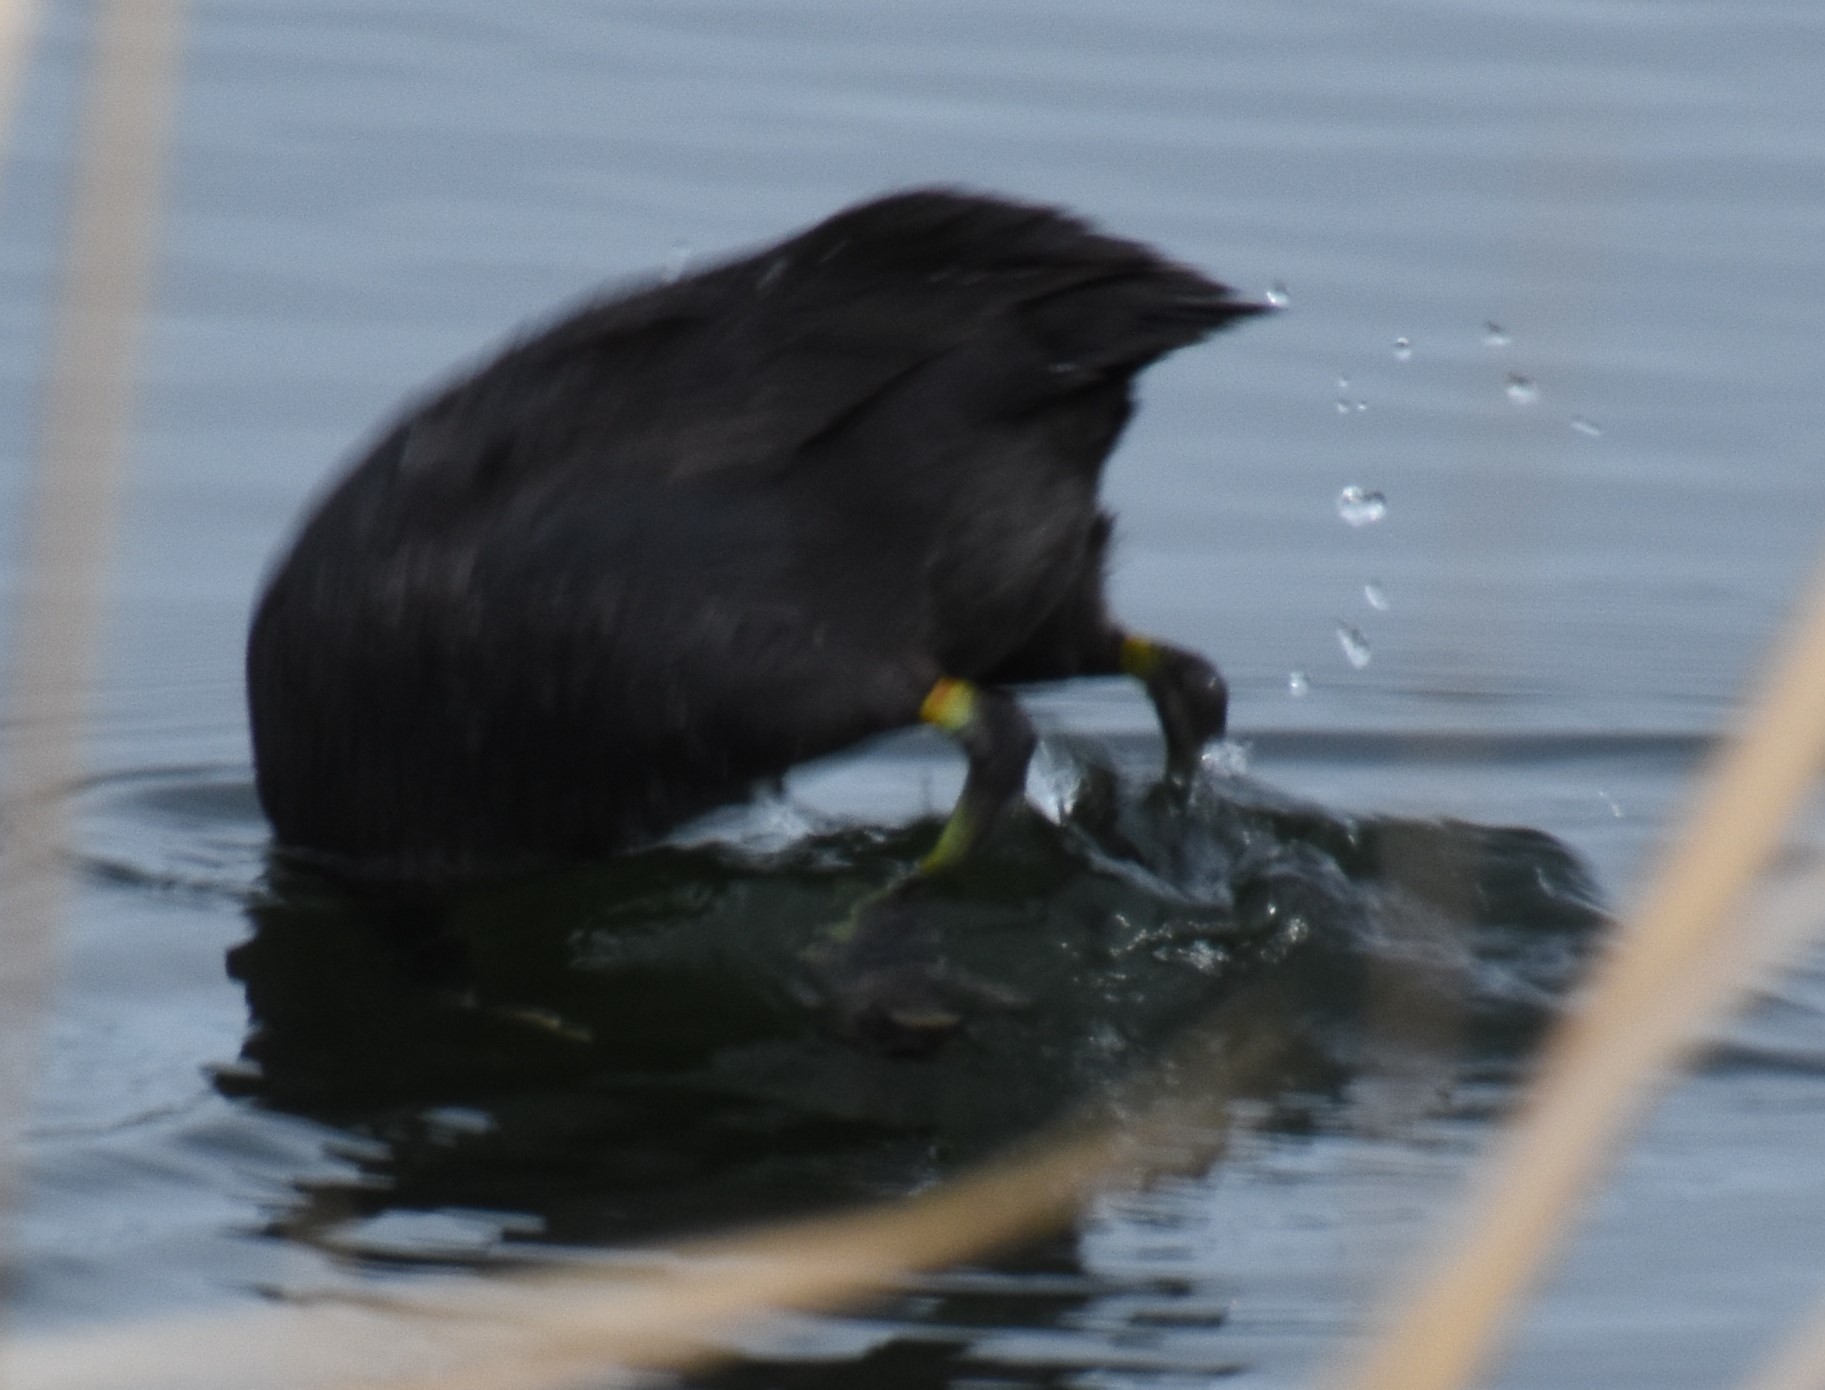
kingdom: Animalia
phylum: Chordata
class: Aves
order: Gruiformes
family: Rallidae
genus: Fulica
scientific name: Fulica americana
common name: American coot
